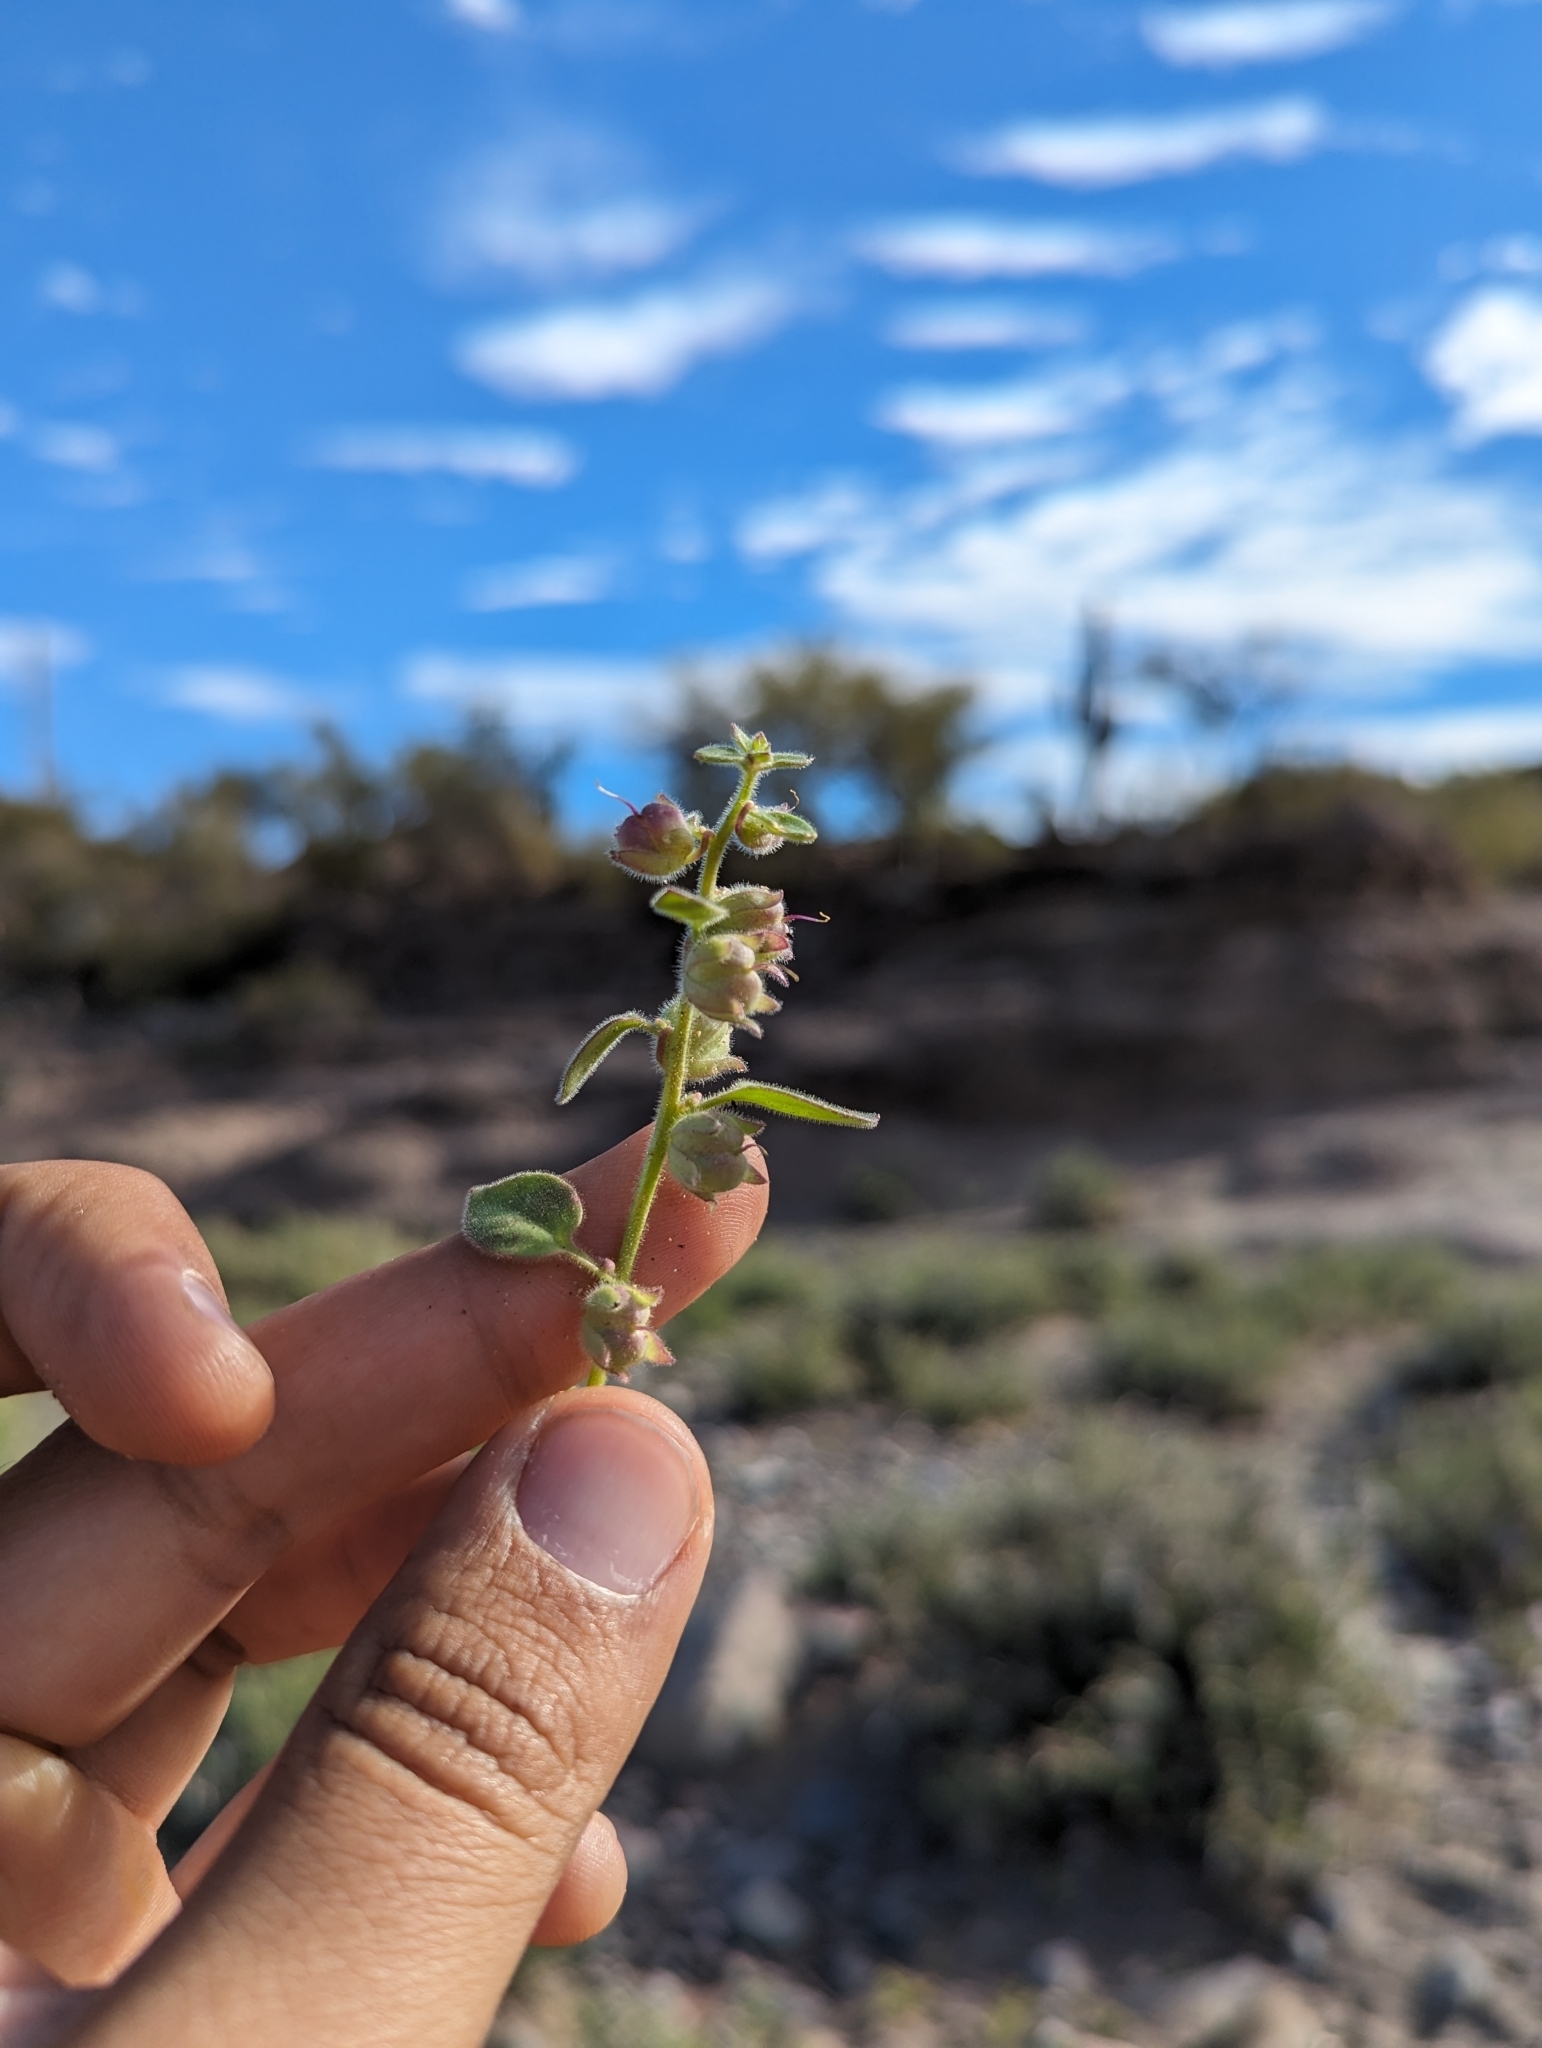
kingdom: Plantae
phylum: Tracheophyta
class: Magnoliopsida
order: Lamiales
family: Plantaginaceae
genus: Pseudorontium
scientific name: Pseudorontium cyathiferum
